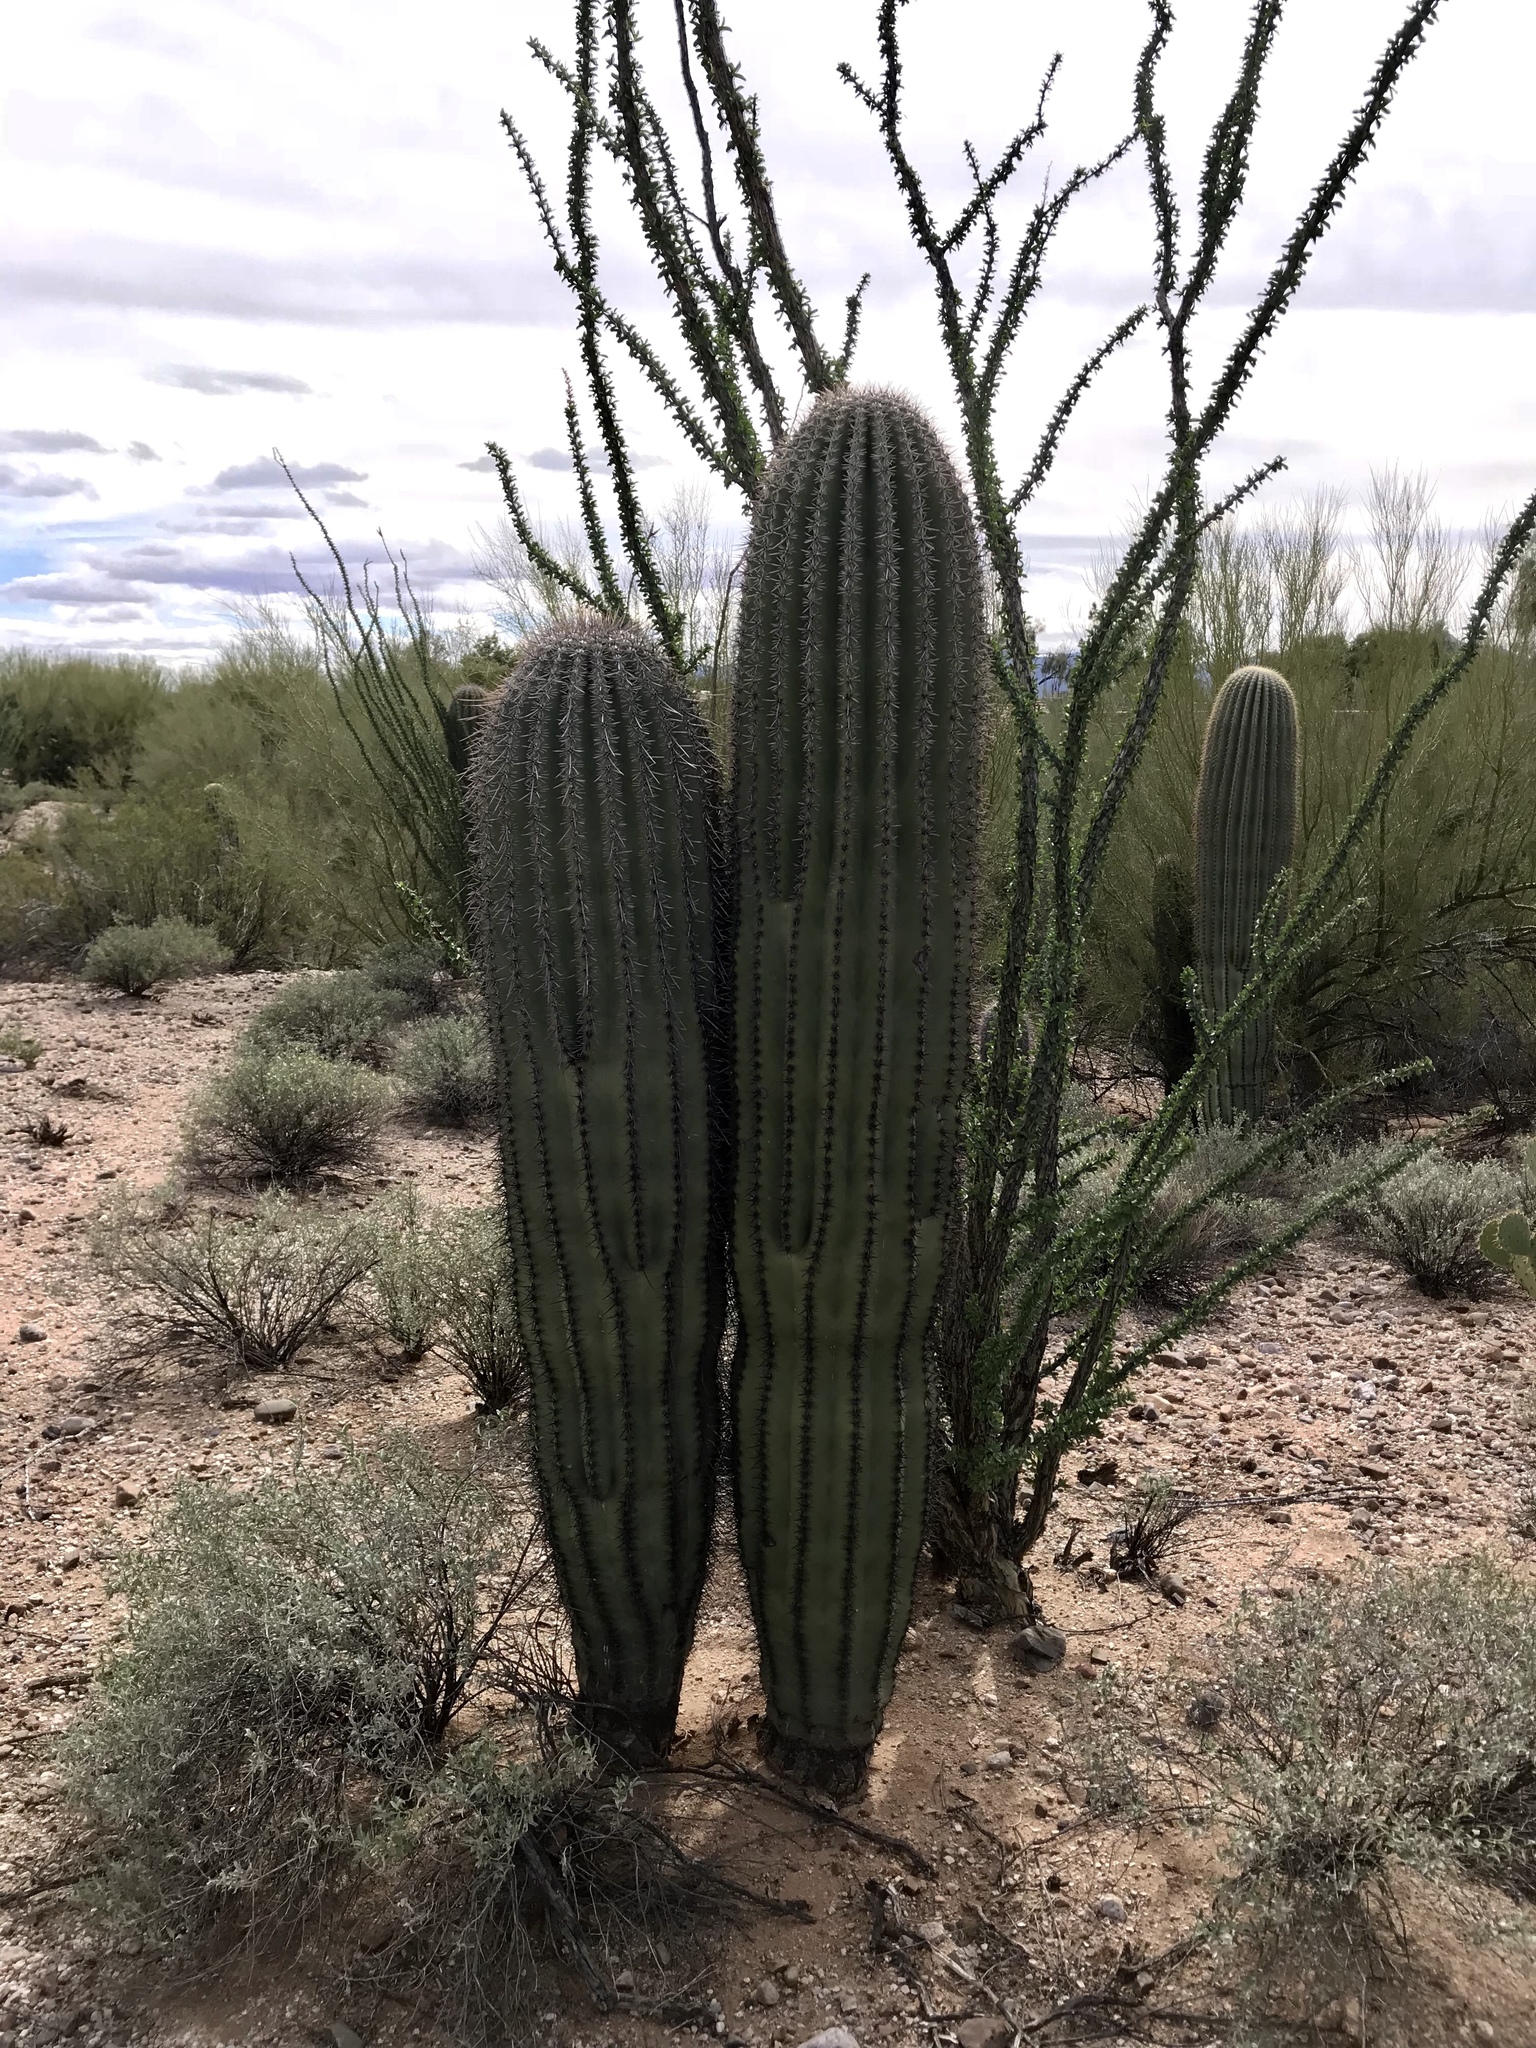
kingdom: Plantae
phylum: Tracheophyta
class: Magnoliopsida
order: Caryophyllales
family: Cactaceae
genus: Carnegiea
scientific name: Carnegiea gigantea
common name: Saguaro
